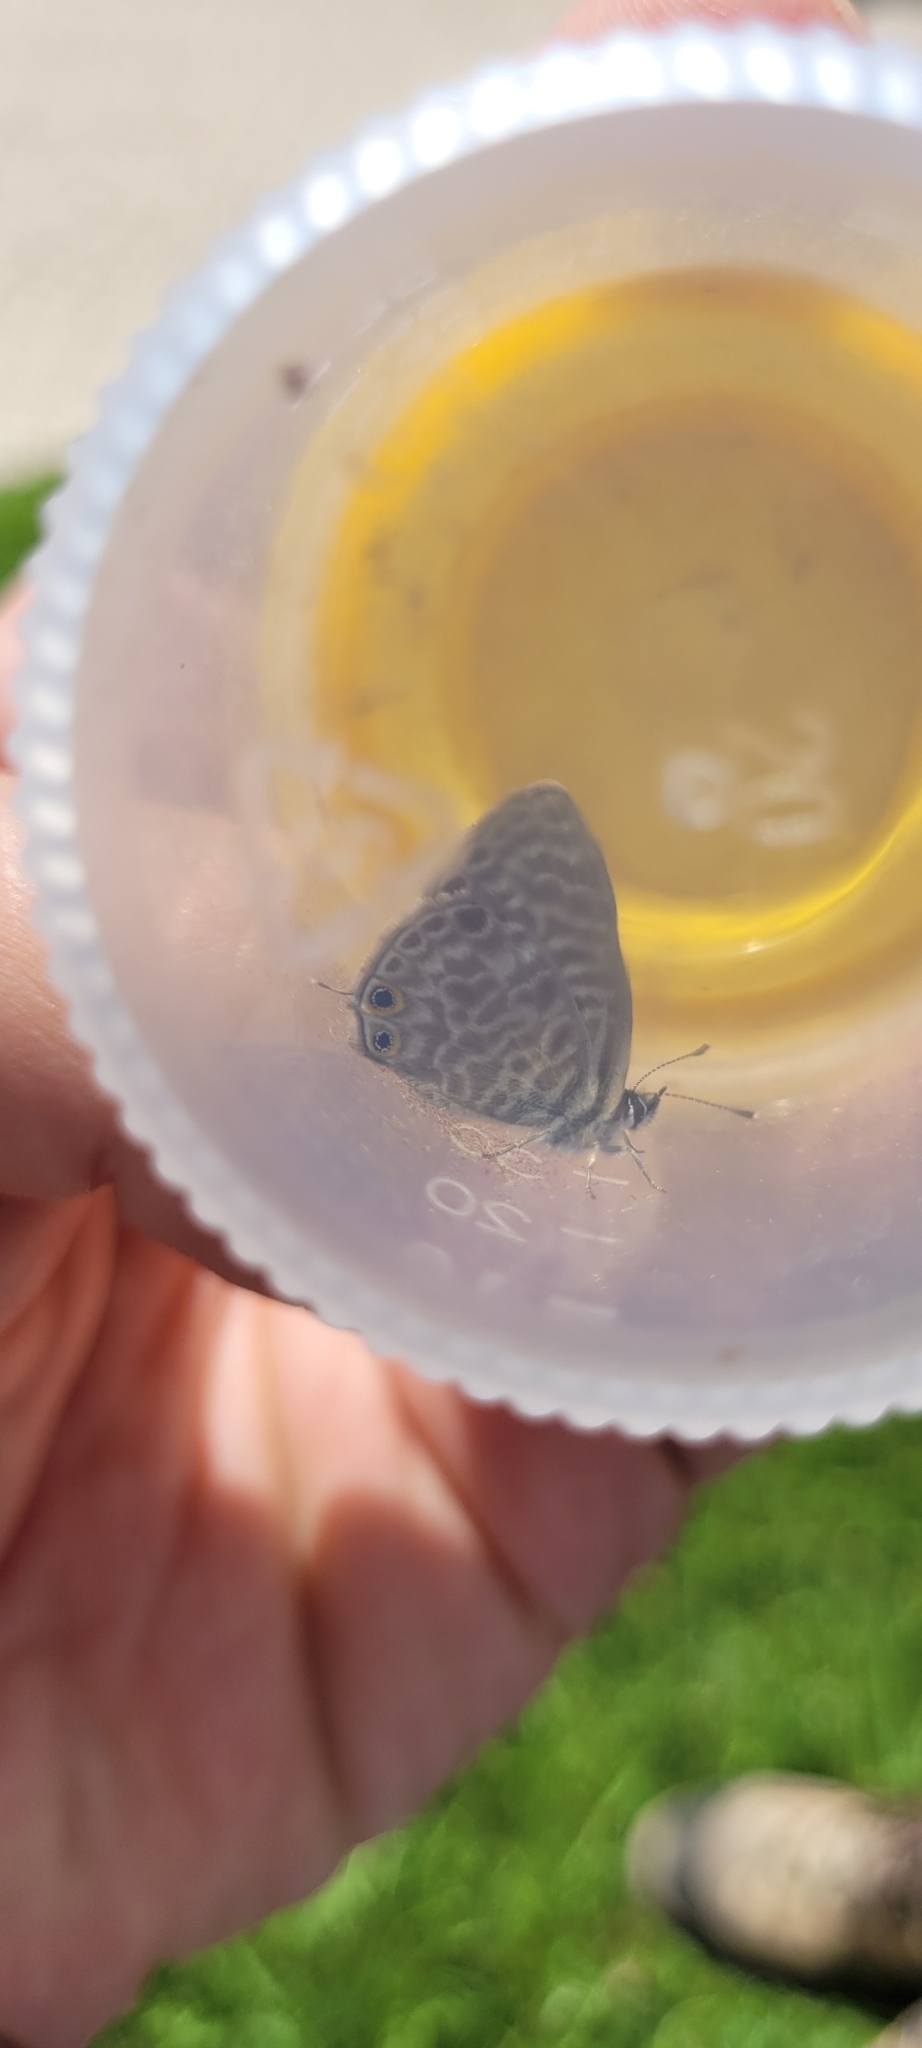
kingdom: Animalia
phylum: Arthropoda
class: Insecta
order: Lepidoptera
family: Lycaenidae
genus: Leptotes
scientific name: Leptotes pirithous
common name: Lang's short-tailed blue
